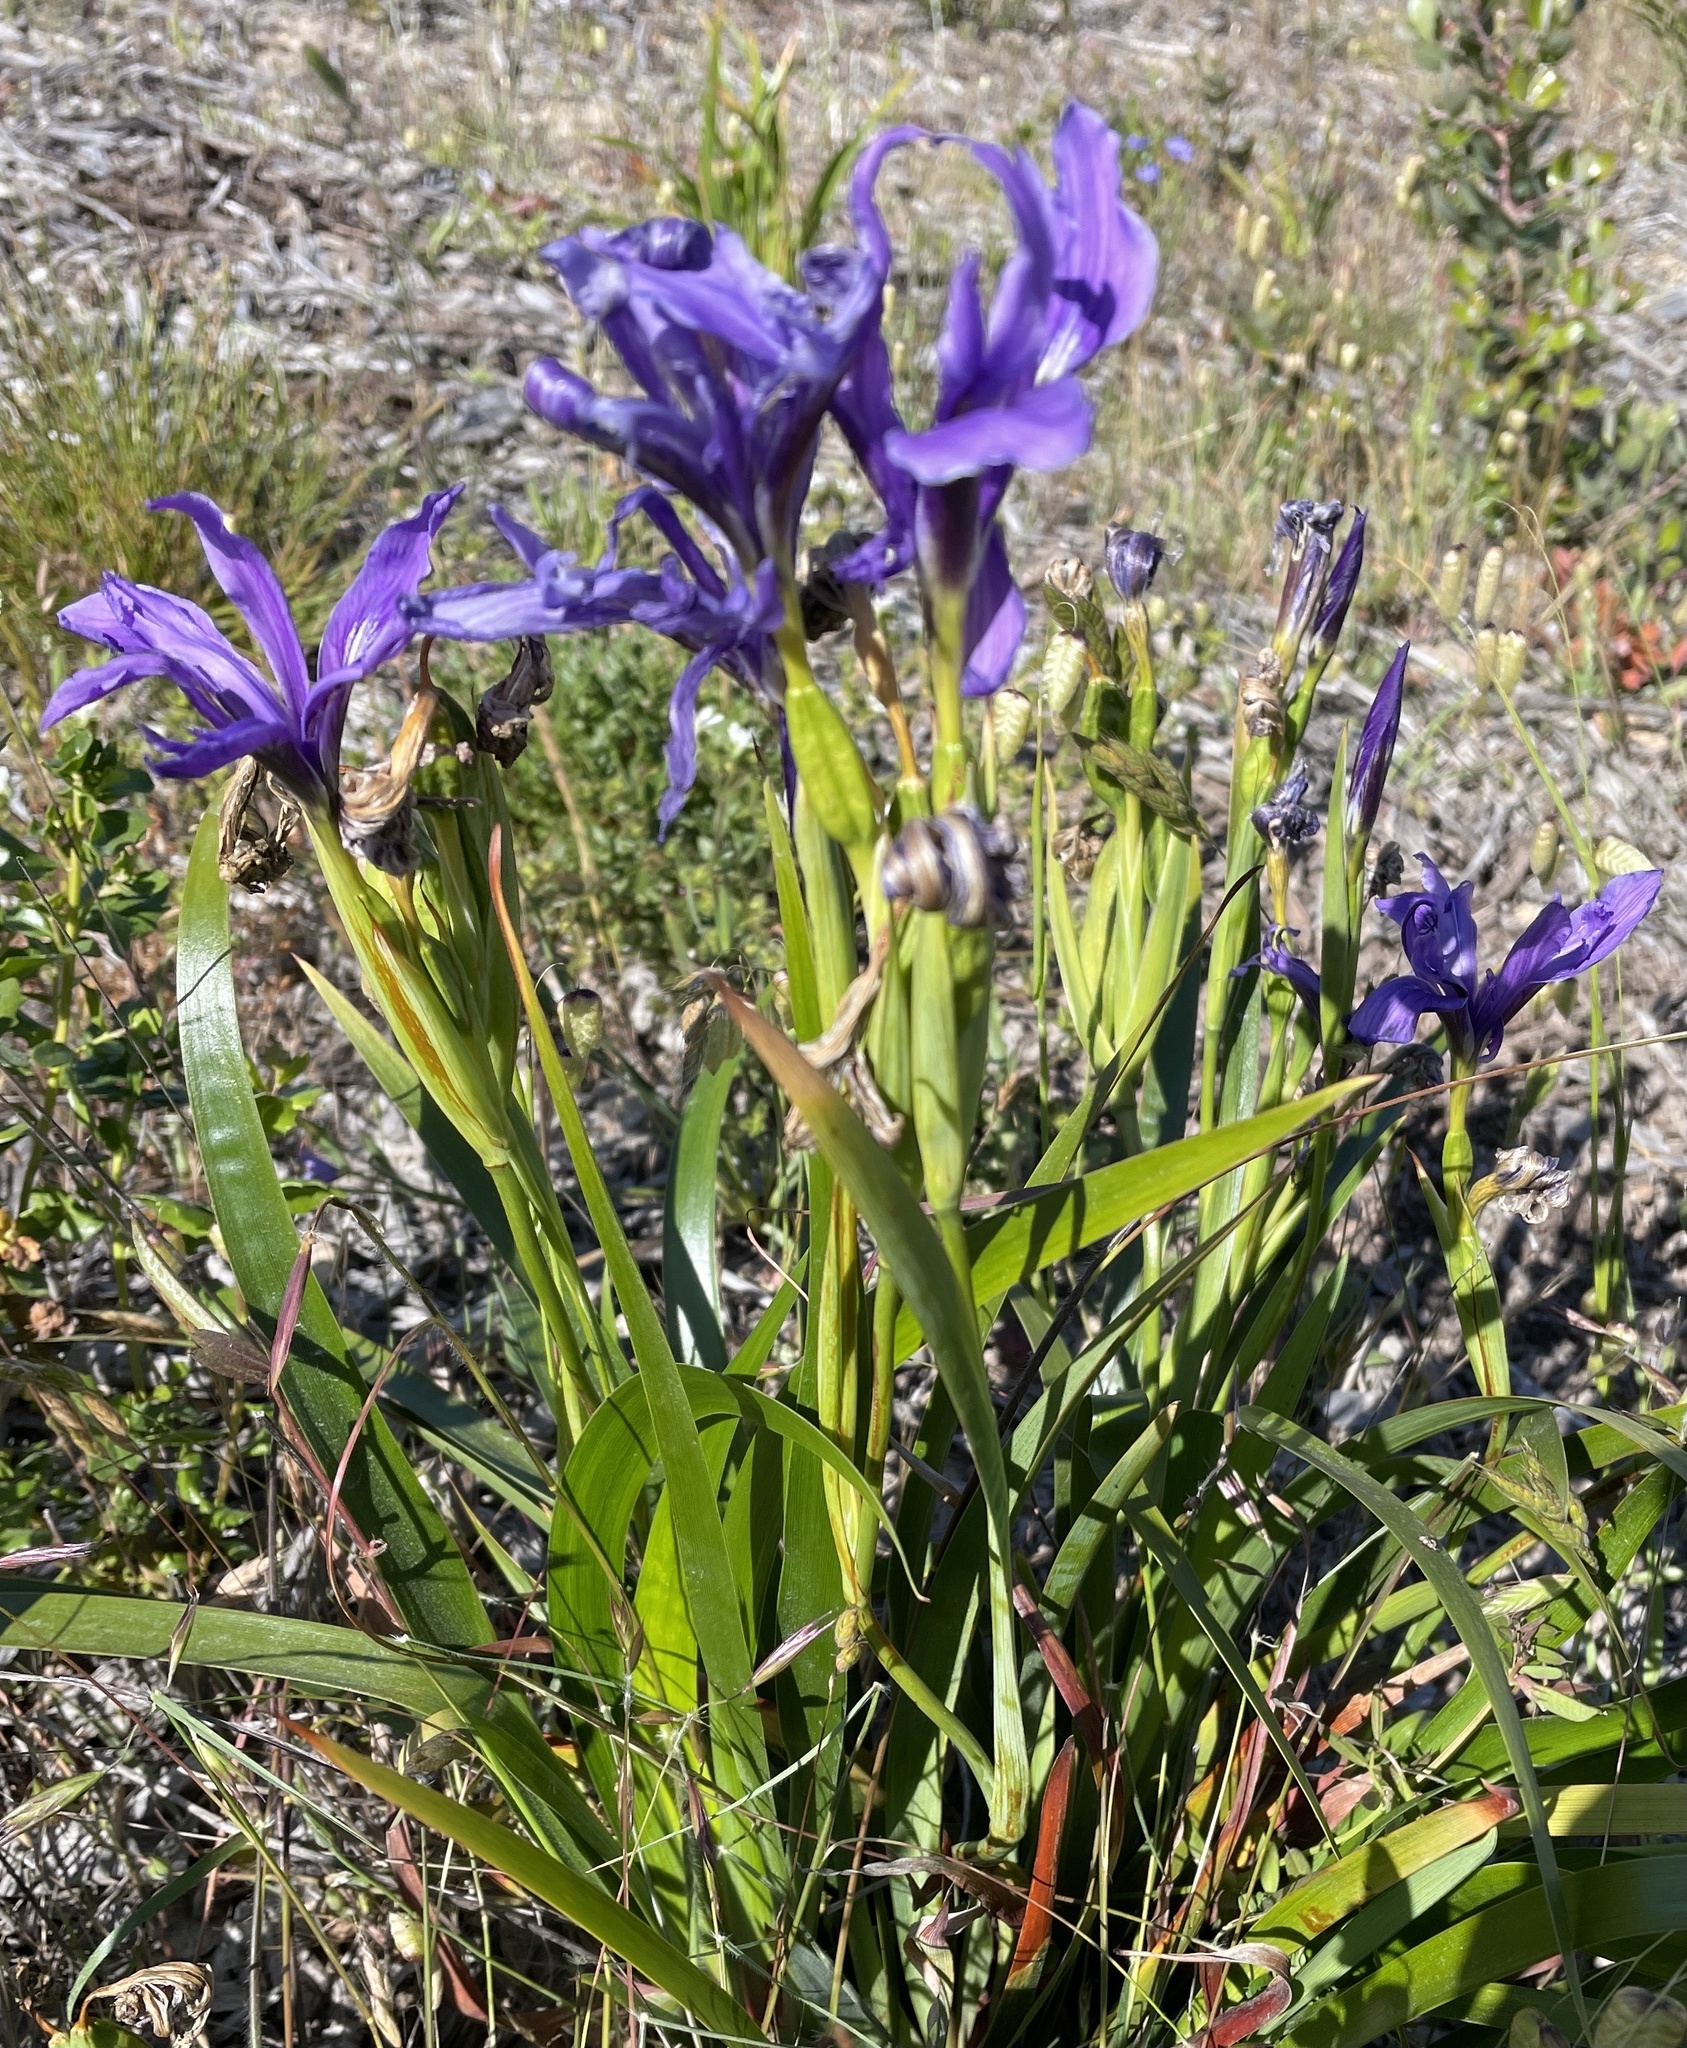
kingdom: Plantae
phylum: Tracheophyta
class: Liliopsida
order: Asparagales
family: Iridaceae
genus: Iris
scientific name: Iris douglasiana
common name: Marin iris
